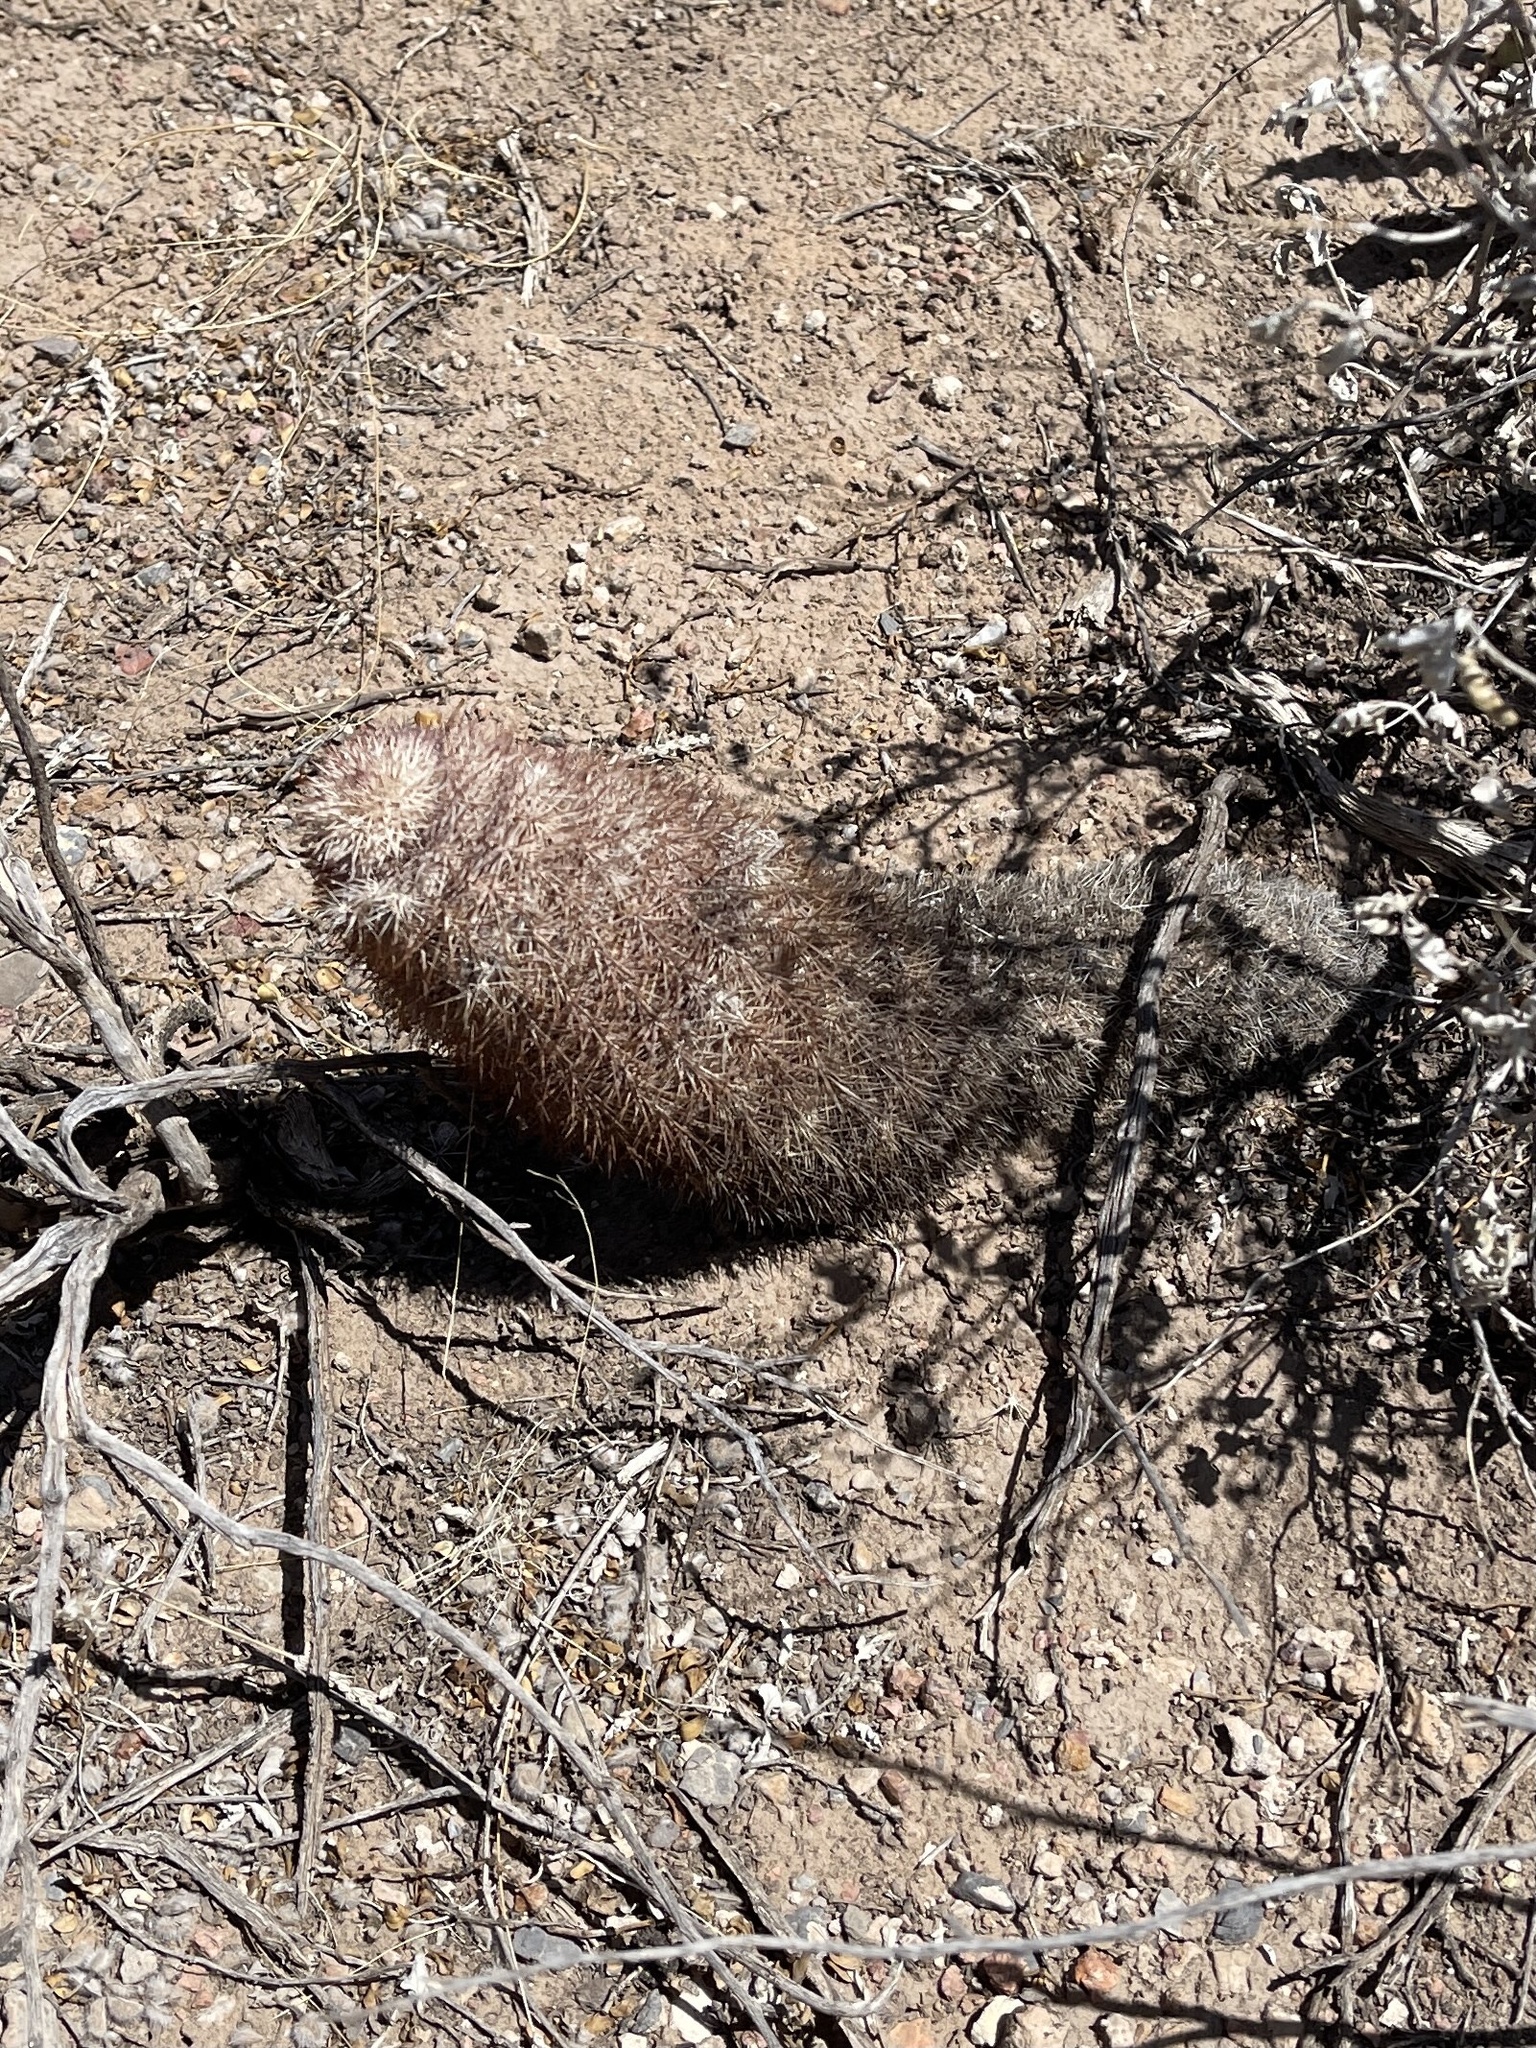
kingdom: Plantae
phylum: Tracheophyta
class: Magnoliopsida
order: Caryophyllales
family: Cactaceae
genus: Echinocereus
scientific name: Echinocereus dasyacanthus
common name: Spiny hedgehog cactus
